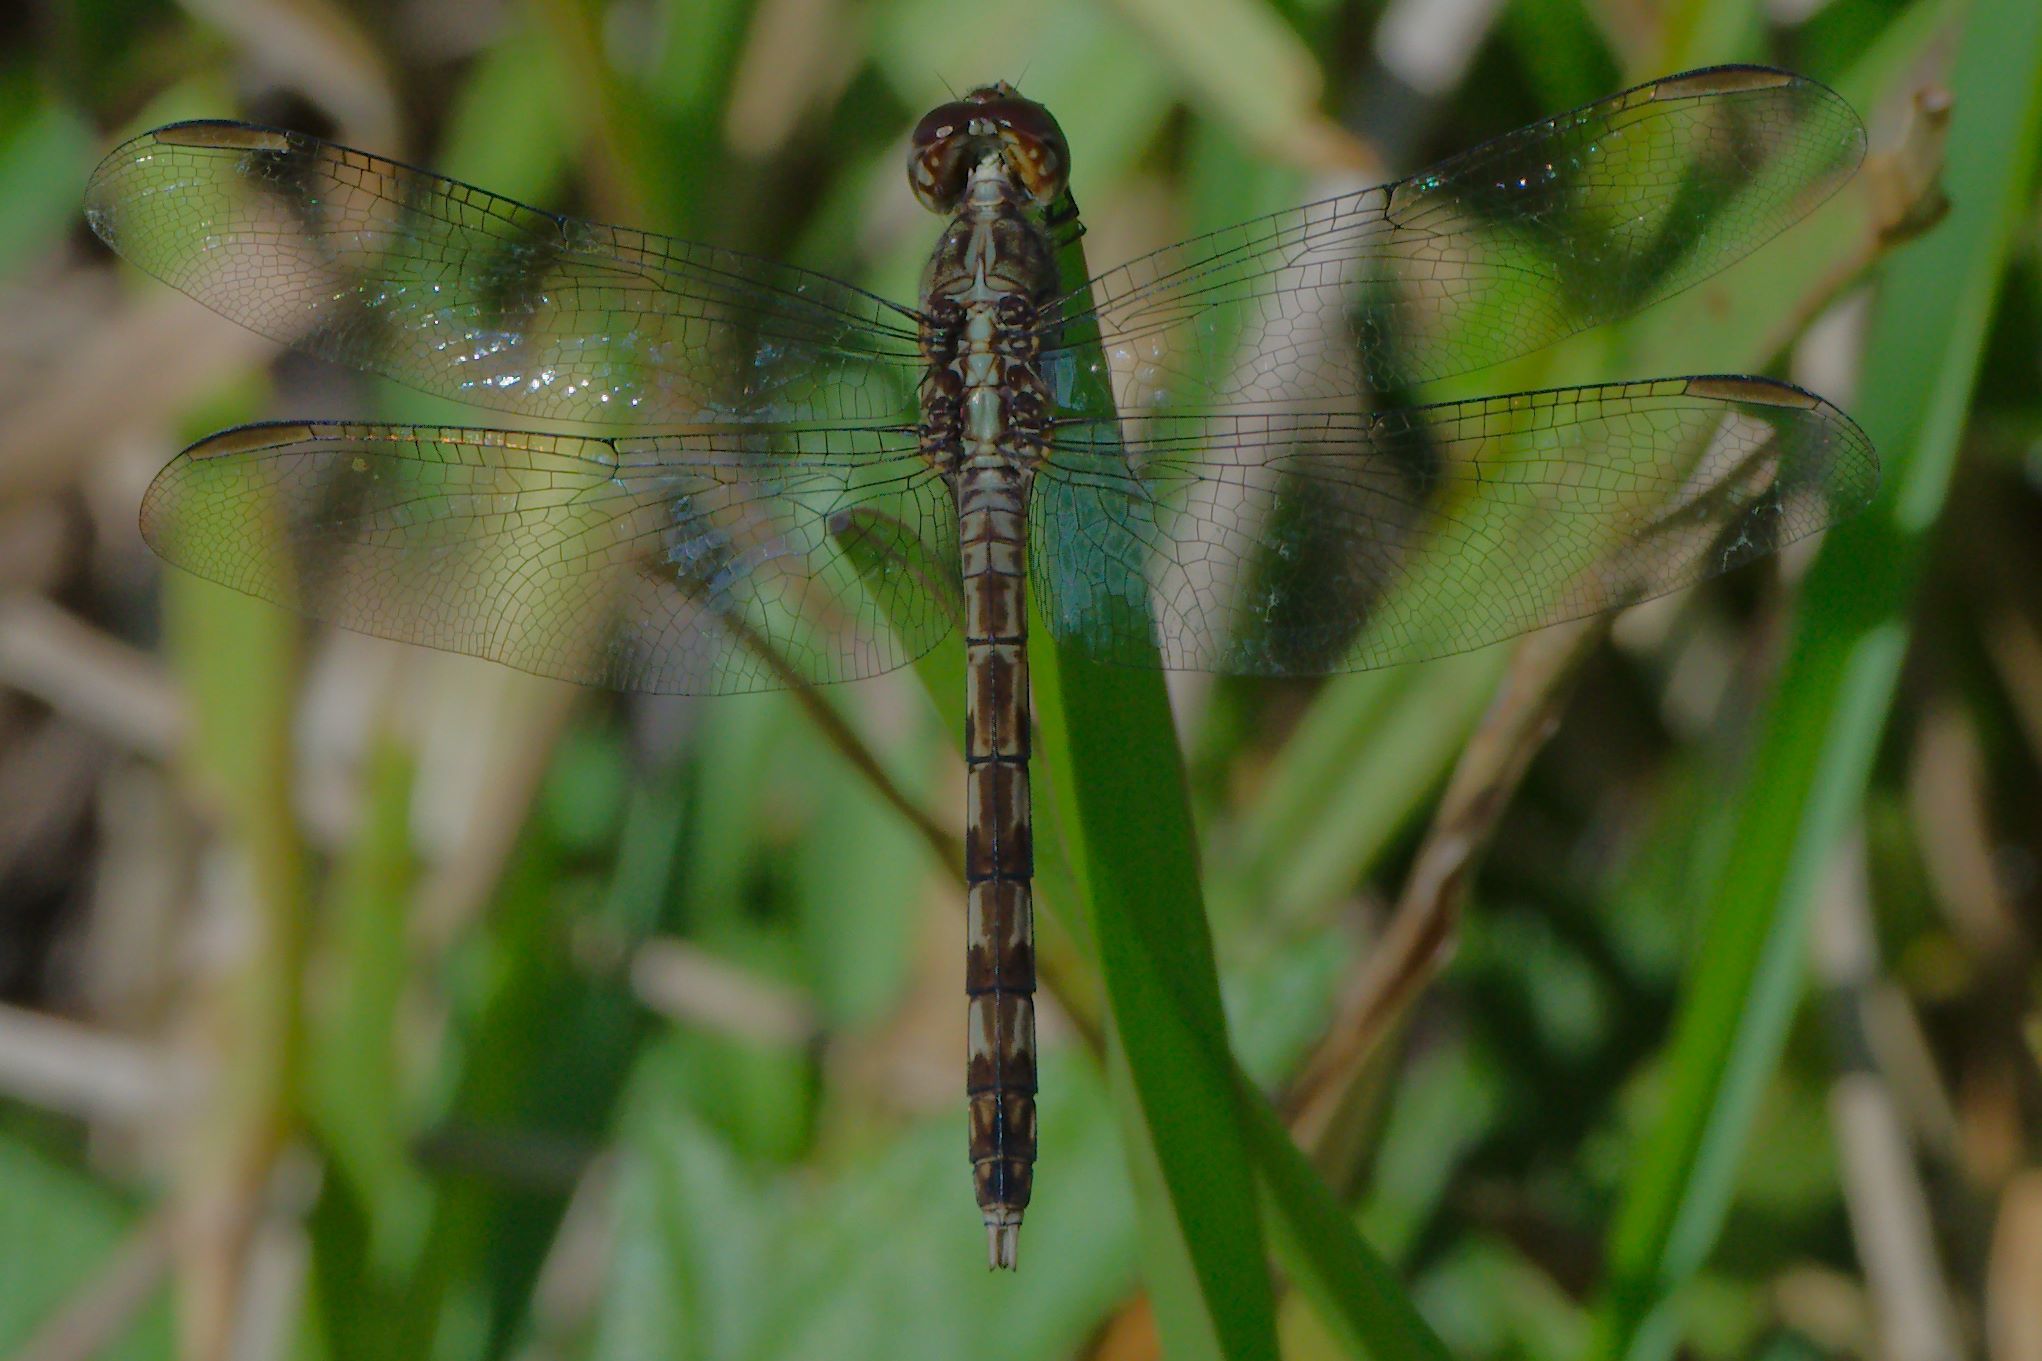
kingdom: Animalia
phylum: Arthropoda
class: Insecta
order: Odonata
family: Libellulidae
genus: Erythrodiplax
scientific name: Erythrodiplax umbrata
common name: Band-winged dragonlet
